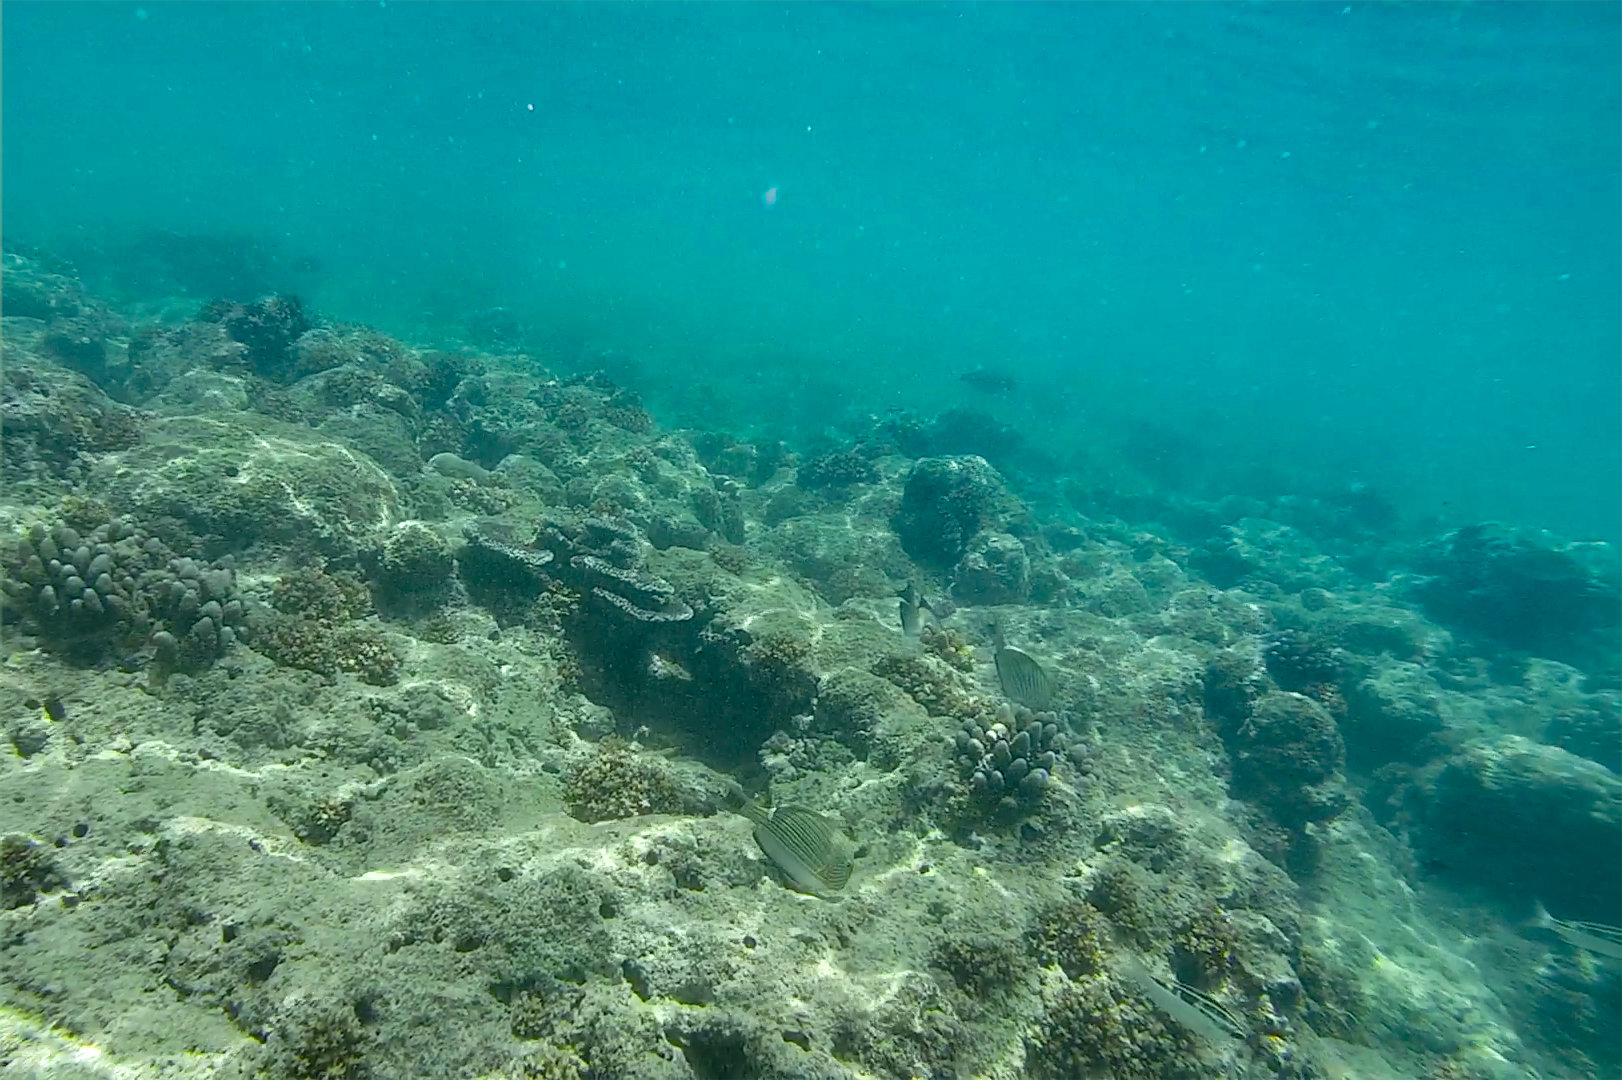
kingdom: Animalia
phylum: Chordata
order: Perciformes
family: Acanthuridae
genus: Acanthurus
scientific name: Acanthurus lineatus
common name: Striped surgeonfish
